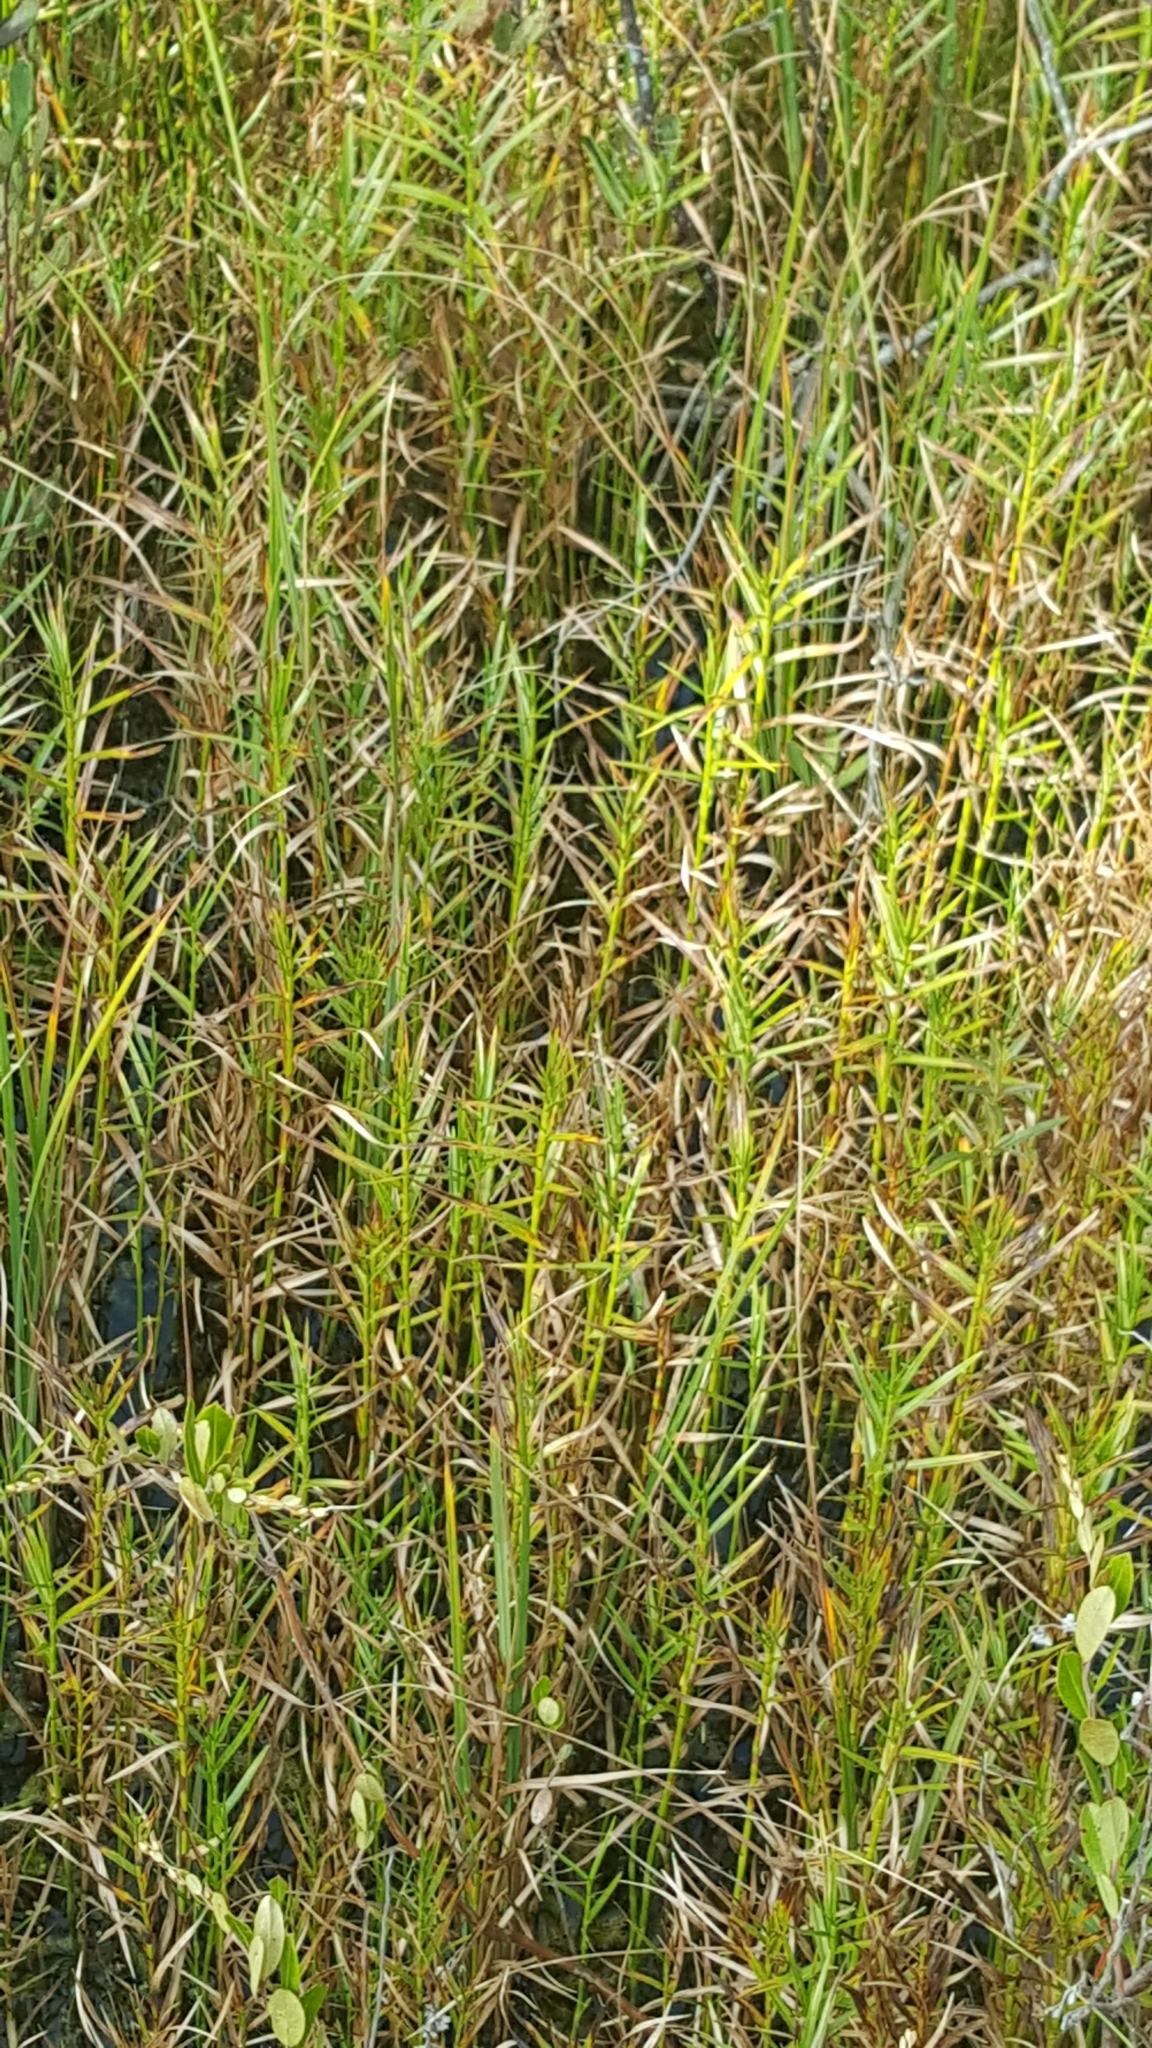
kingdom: Plantae
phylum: Tracheophyta
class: Liliopsida
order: Poales
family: Cyperaceae
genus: Dulichium
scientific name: Dulichium arundinaceum
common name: Three-way sedge
